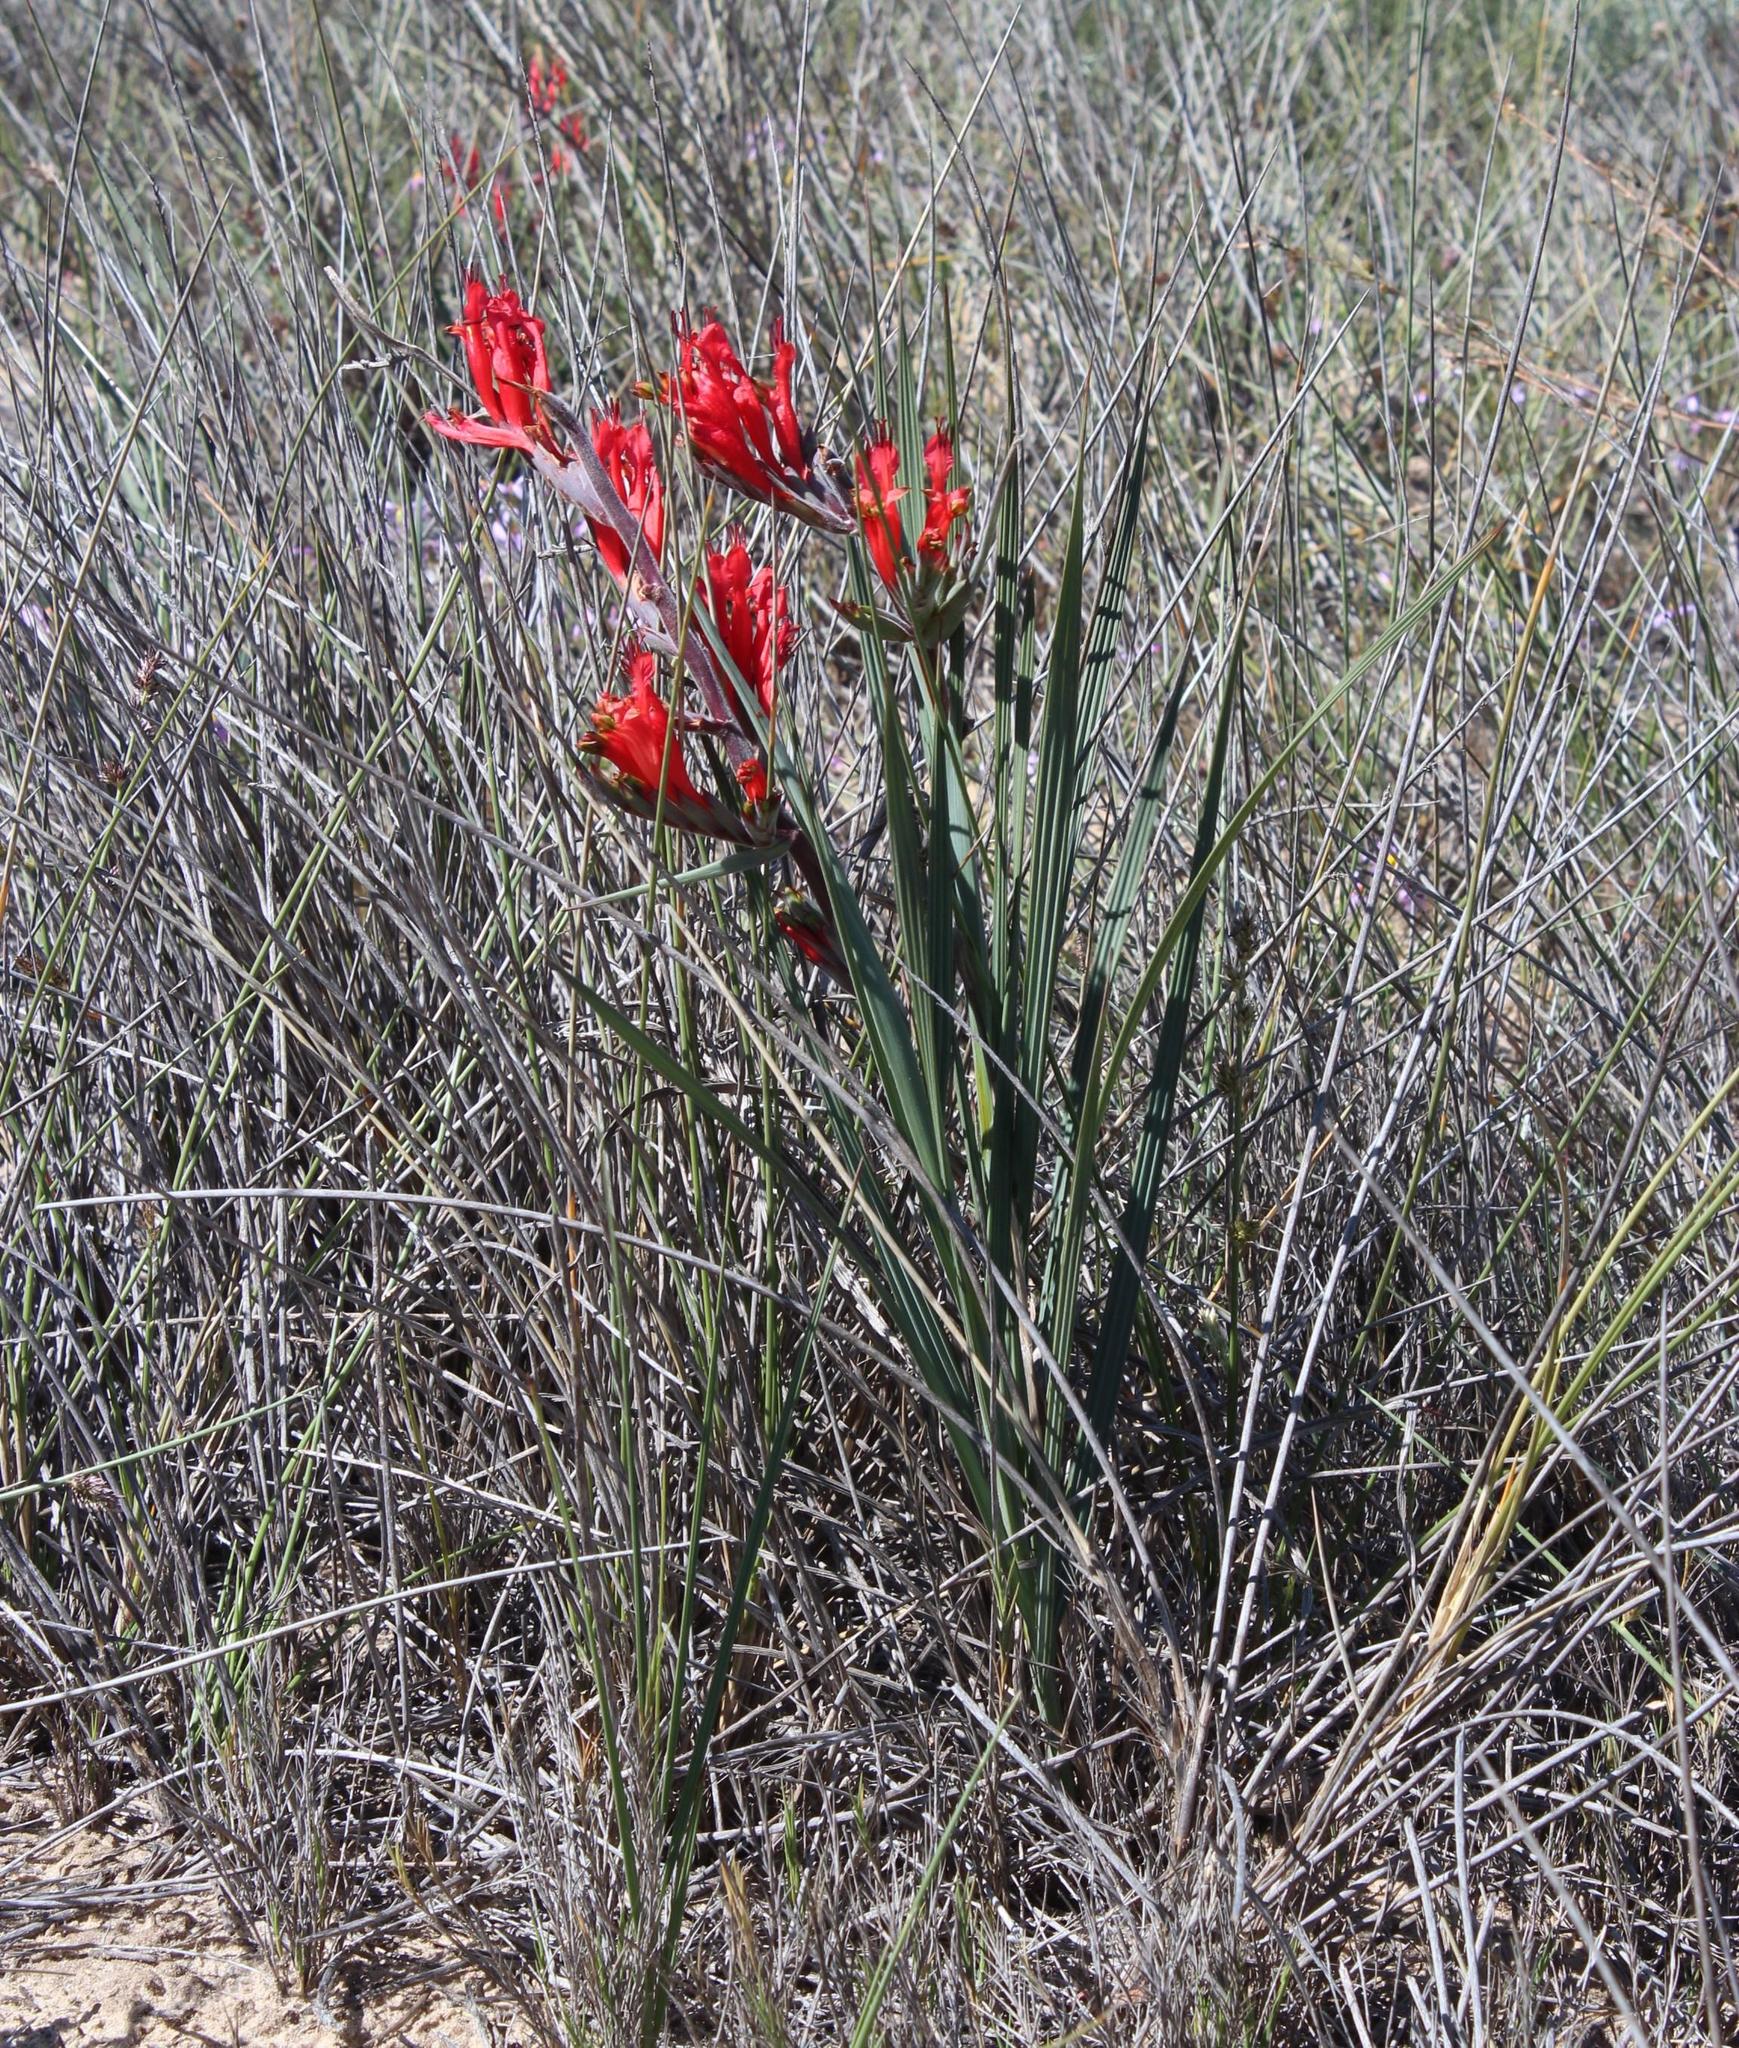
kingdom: Plantae
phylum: Tracheophyta
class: Liliopsida
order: Asparagales
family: Iridaceae
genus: Babiana
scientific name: Babiana hirsuta
